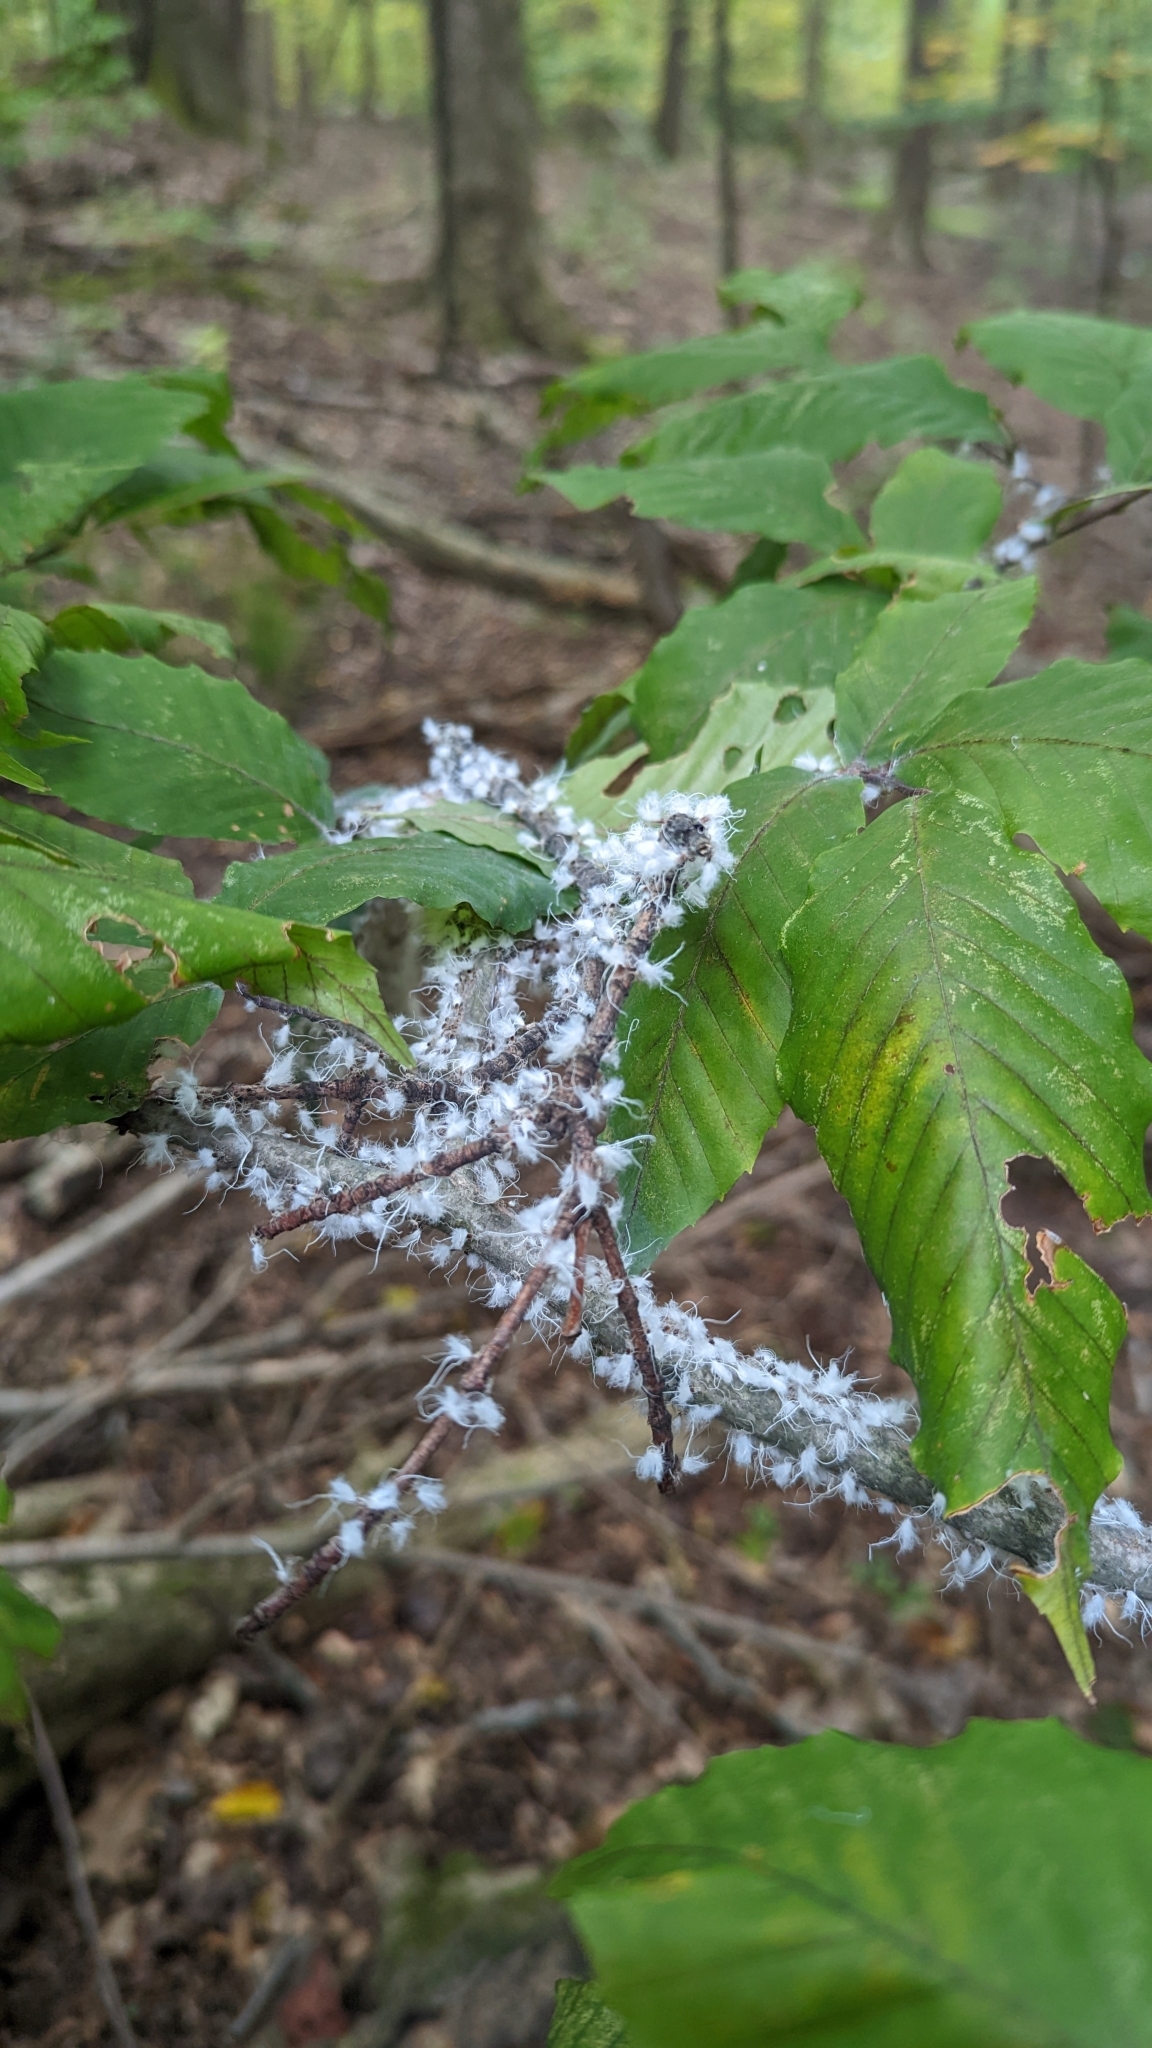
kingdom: Animalia
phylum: Arthropoda
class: Insecta
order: Hemiptera
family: Aphididae
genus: Grylloprociphilus
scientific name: Grylloprociphilus imbricator
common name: Beech blight aphid
